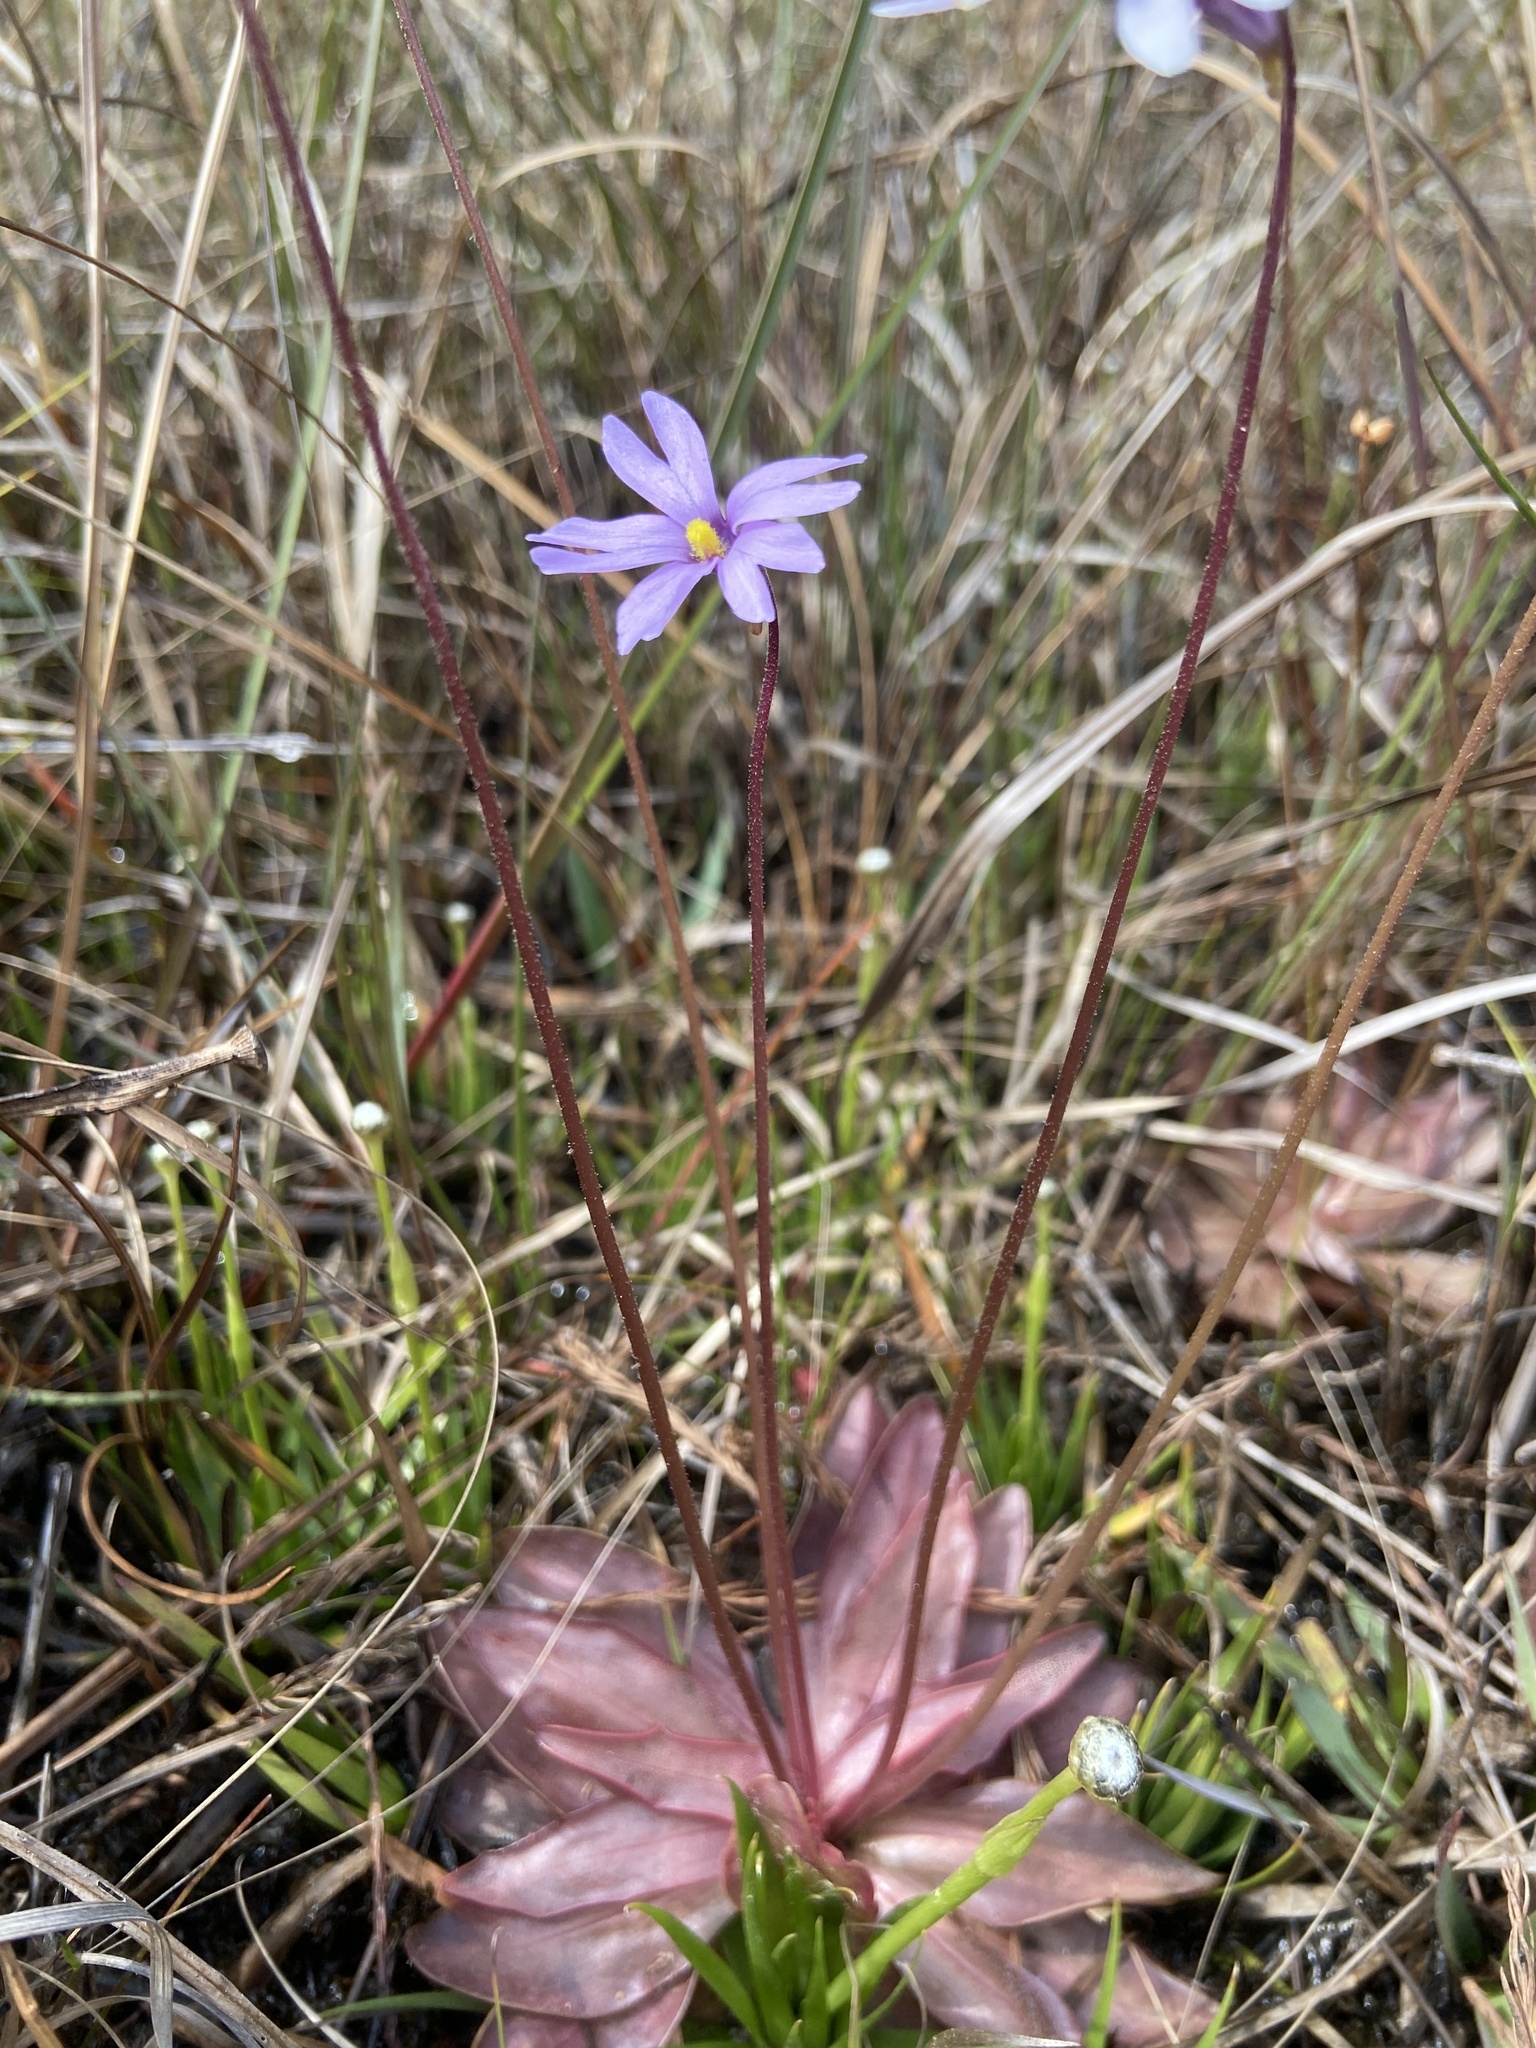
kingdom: Plantae
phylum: Tracheophyta
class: Magnoliopsida
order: Lamiales
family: Lentibulariaceae
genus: Pinguicula
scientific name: Pinguicula planifolia
